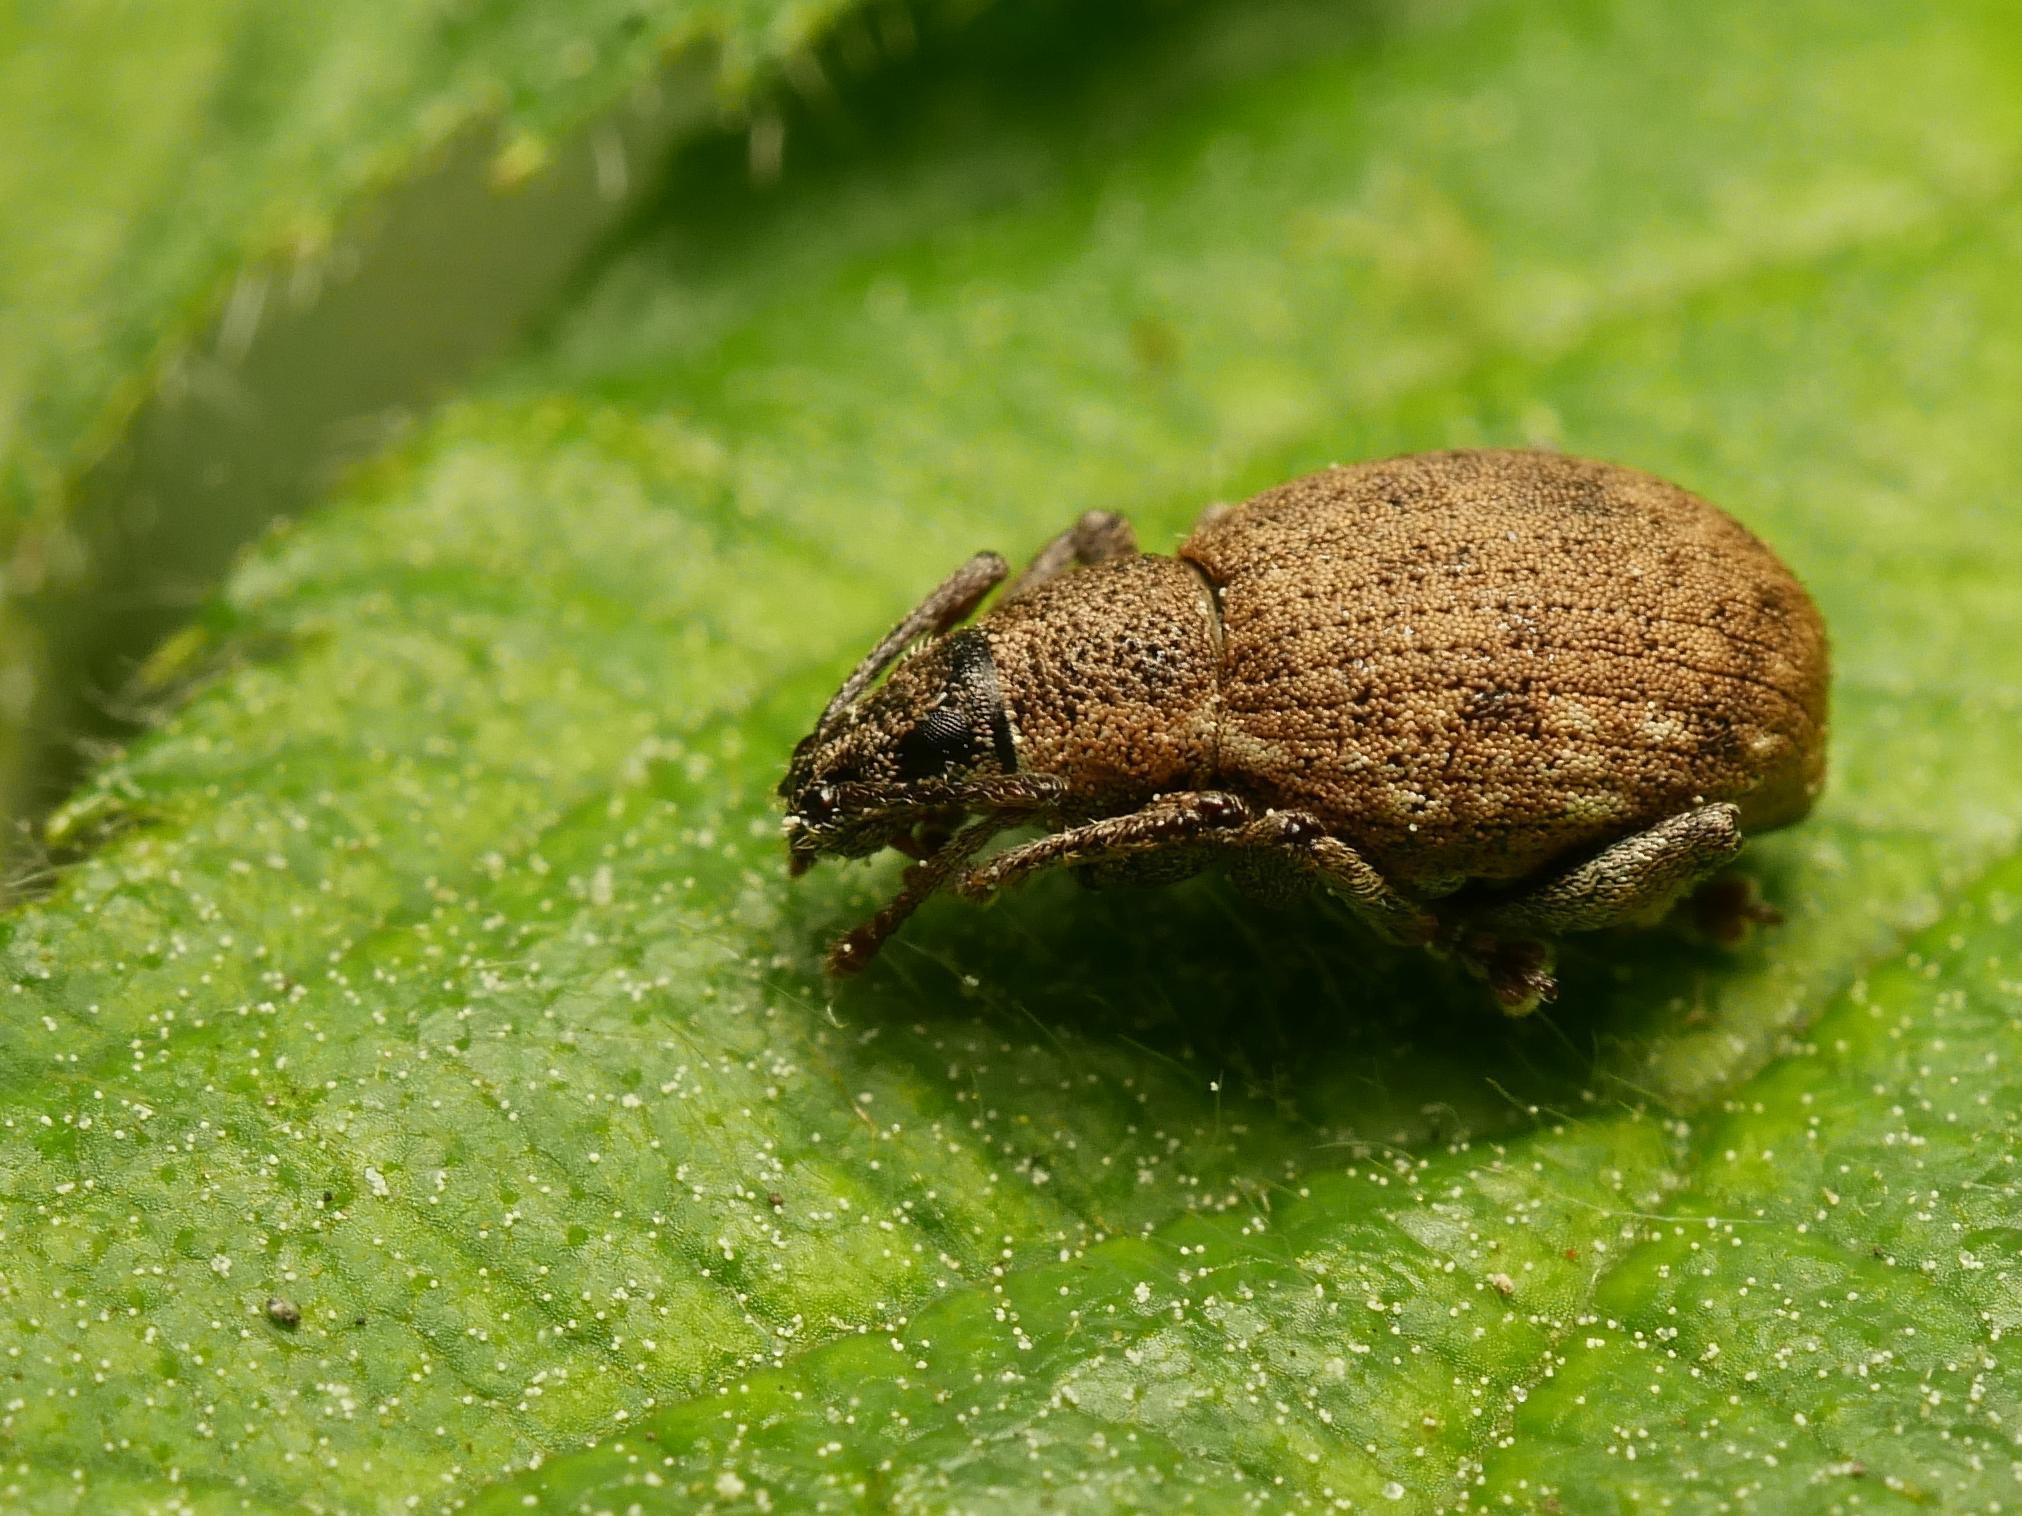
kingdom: Animalia
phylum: Arthropoda
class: Insecta
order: Coleoptera
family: Curculionidae
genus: Peritelus
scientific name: Peritelus sphaeroides
